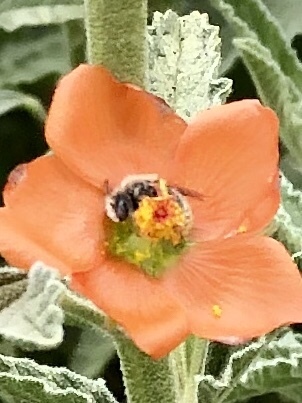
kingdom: Animalia
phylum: Arthropoda
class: Insecta
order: Hymenoptera
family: Apidae
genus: Diadasia
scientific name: Diadasia
